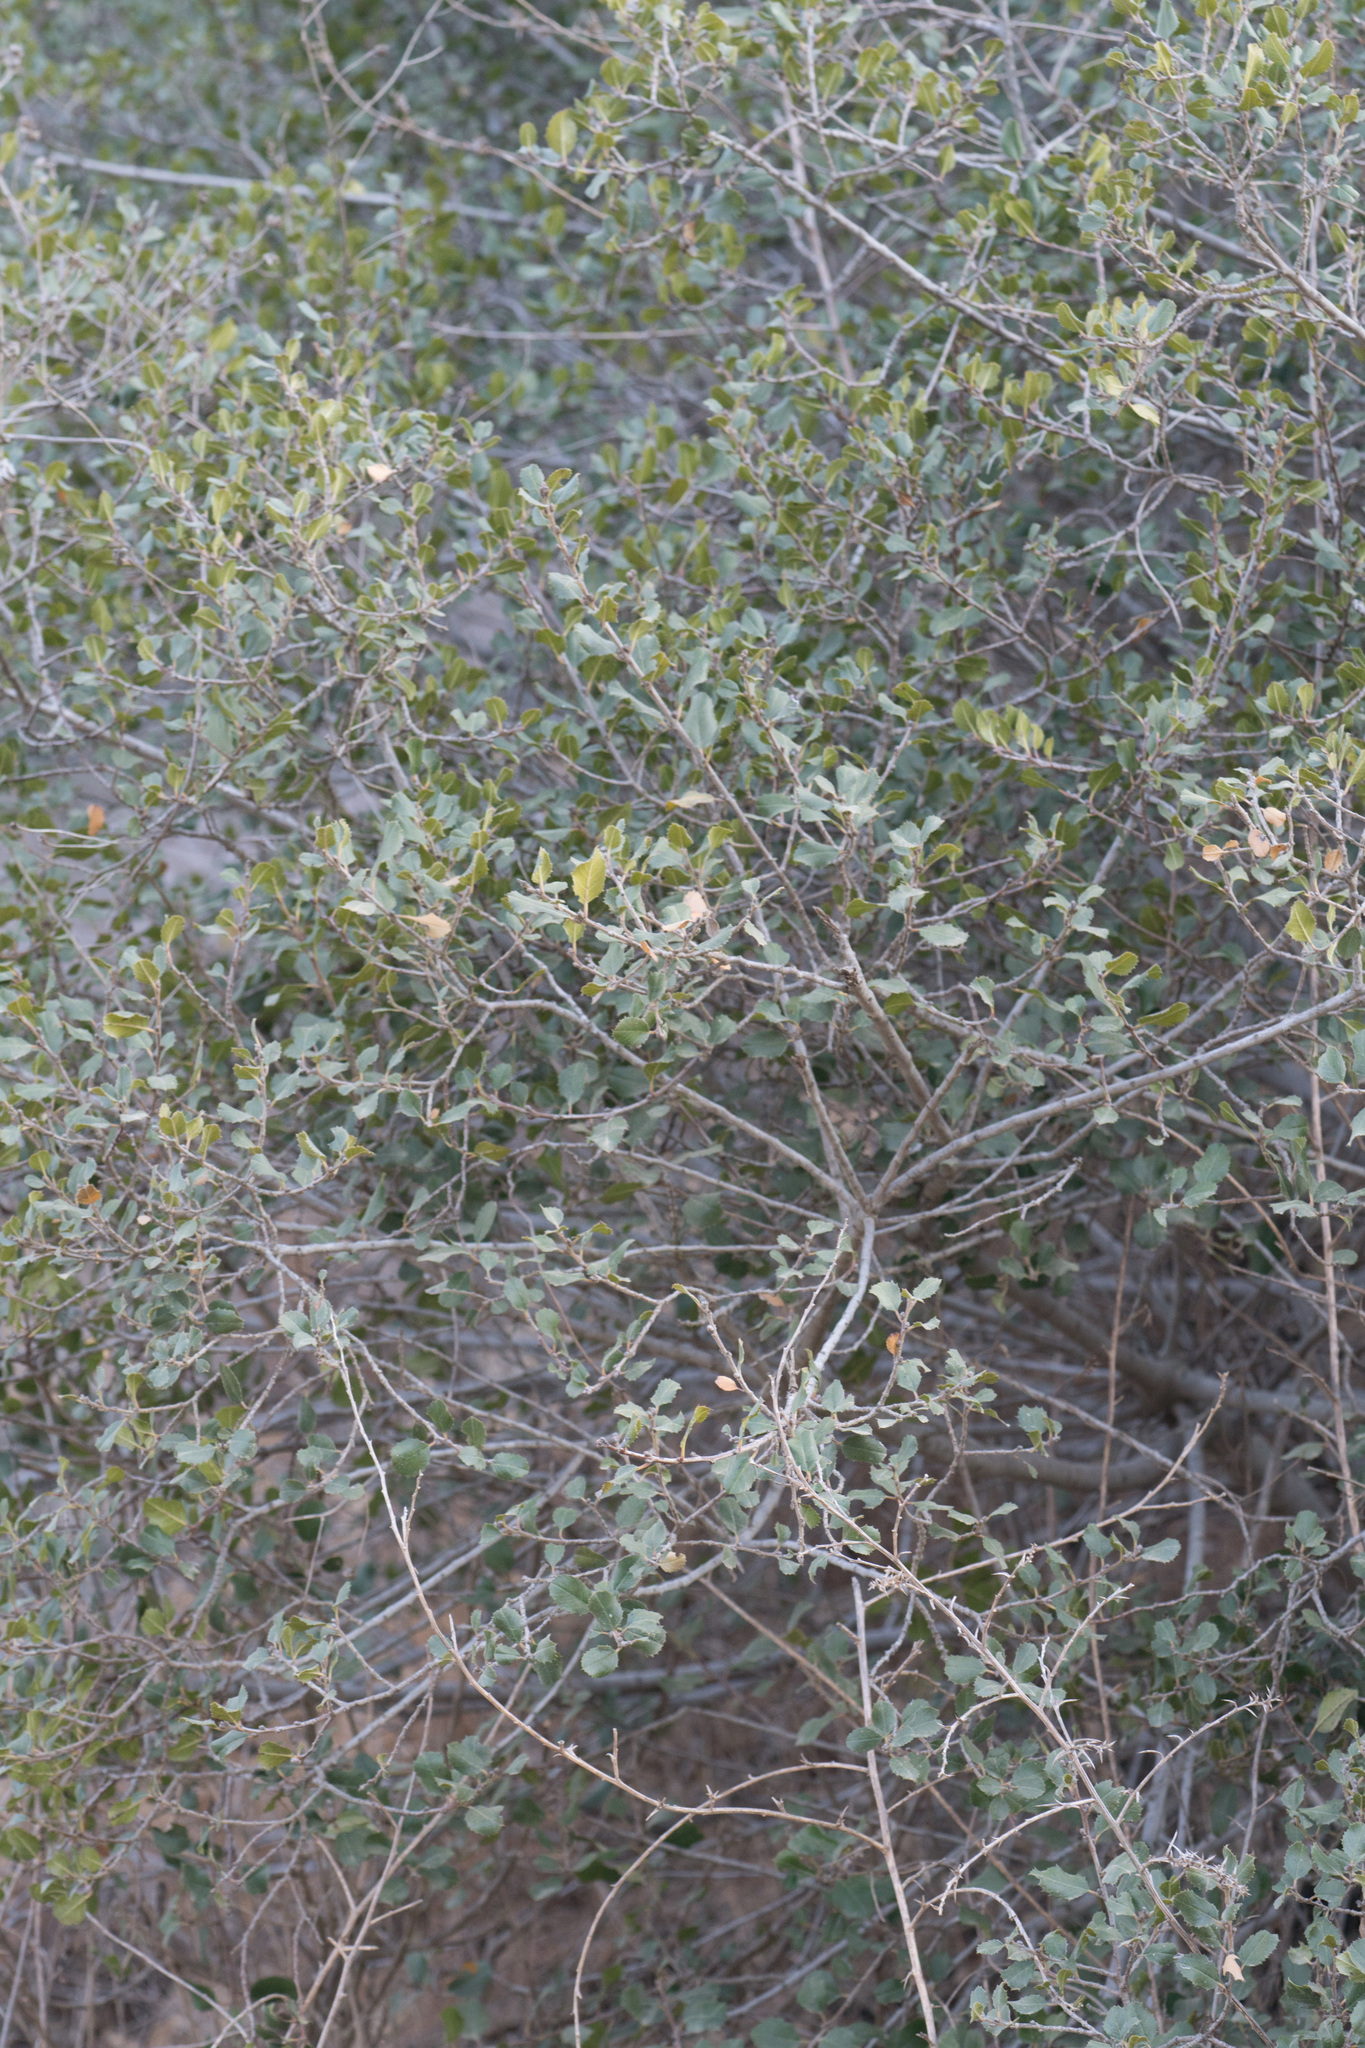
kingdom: Plantae
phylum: Tracheophyta
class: Magnoliopsida
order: Rosales
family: Rhamnaceae
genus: Endotropis
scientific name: Endotropis crocea
